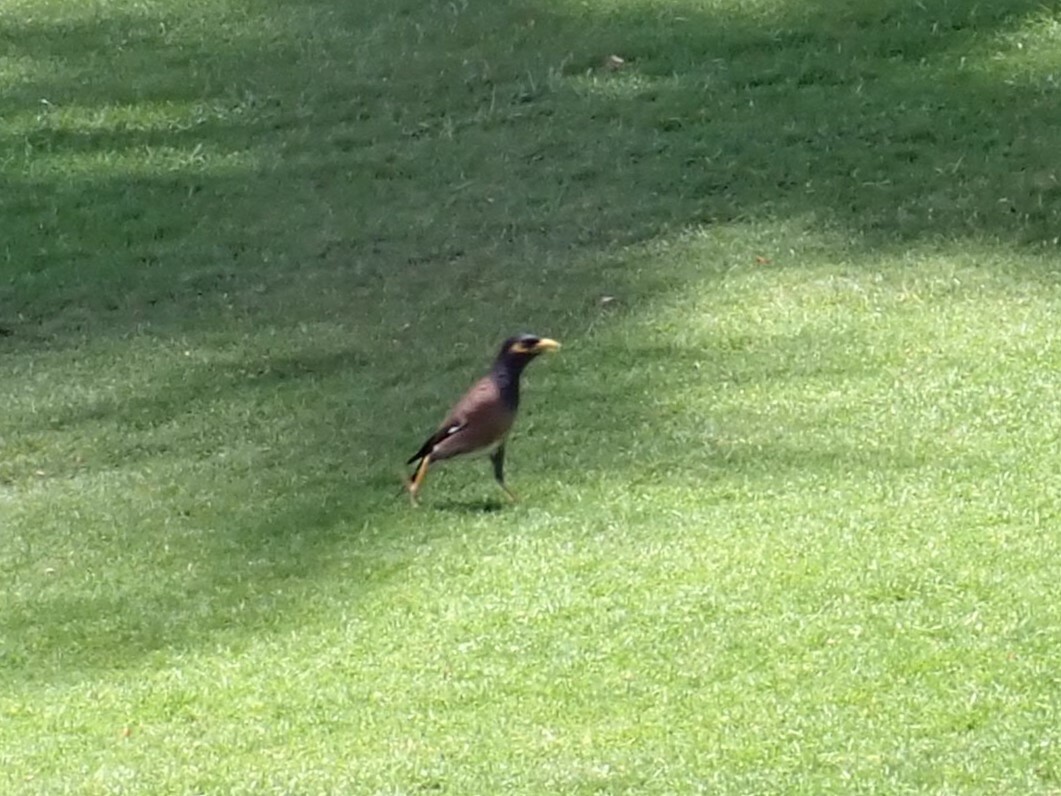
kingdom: Animalia
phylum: Chordata
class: Aves
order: Passeriformes
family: Sturnidae
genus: Acridotheres
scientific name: Acridotheres tristis
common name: Common myna
